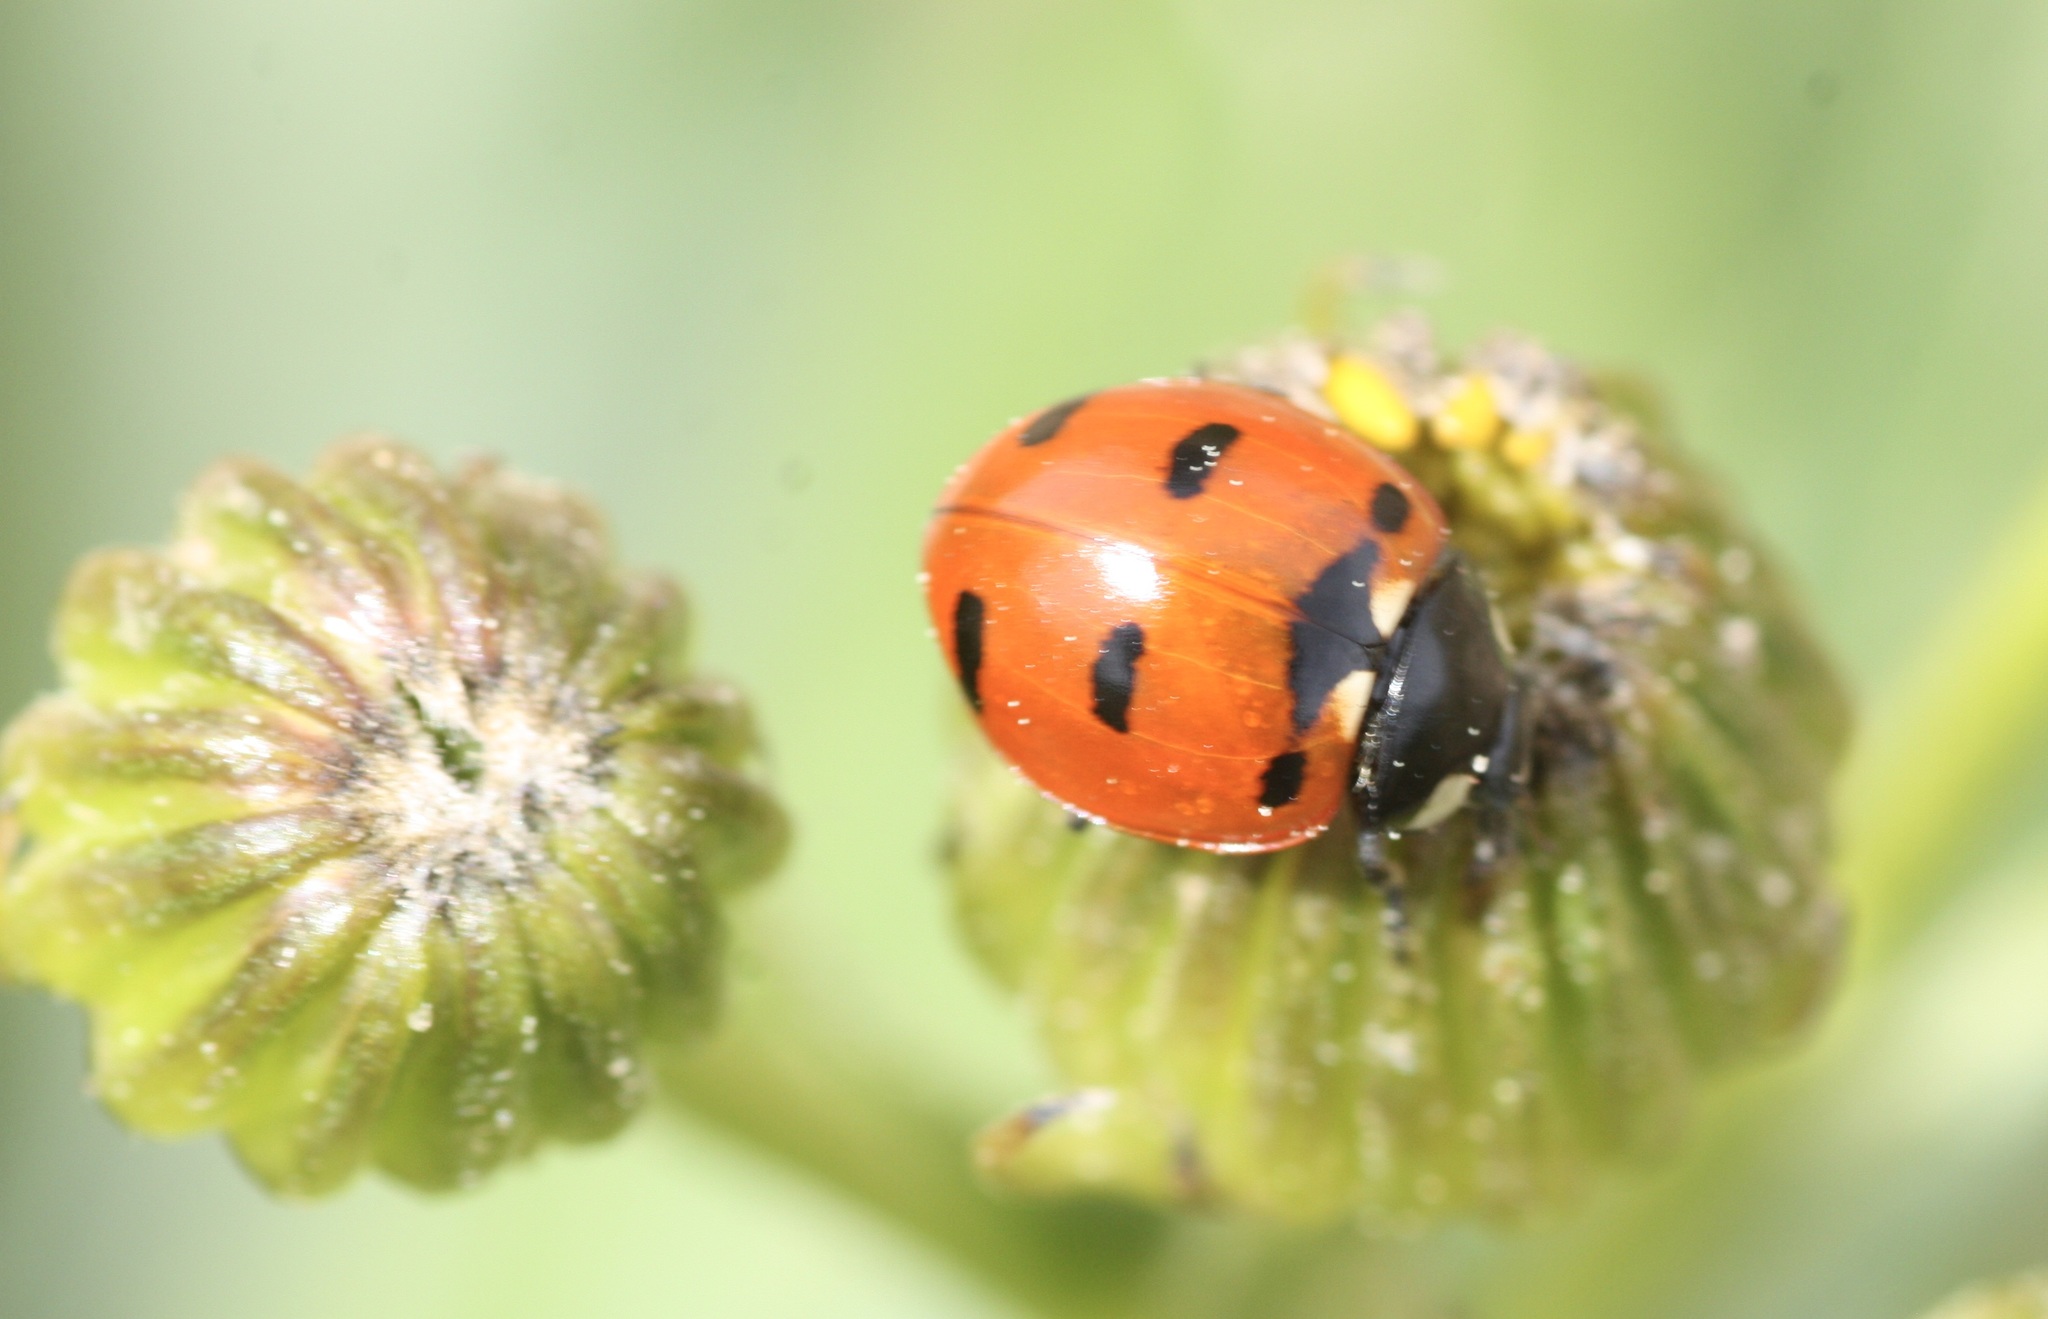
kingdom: Animalia
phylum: Arthropoda
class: Insecta
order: Coleoptera
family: Coccinellidae
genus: Coccinella
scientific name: Coccinella transversoguttata
